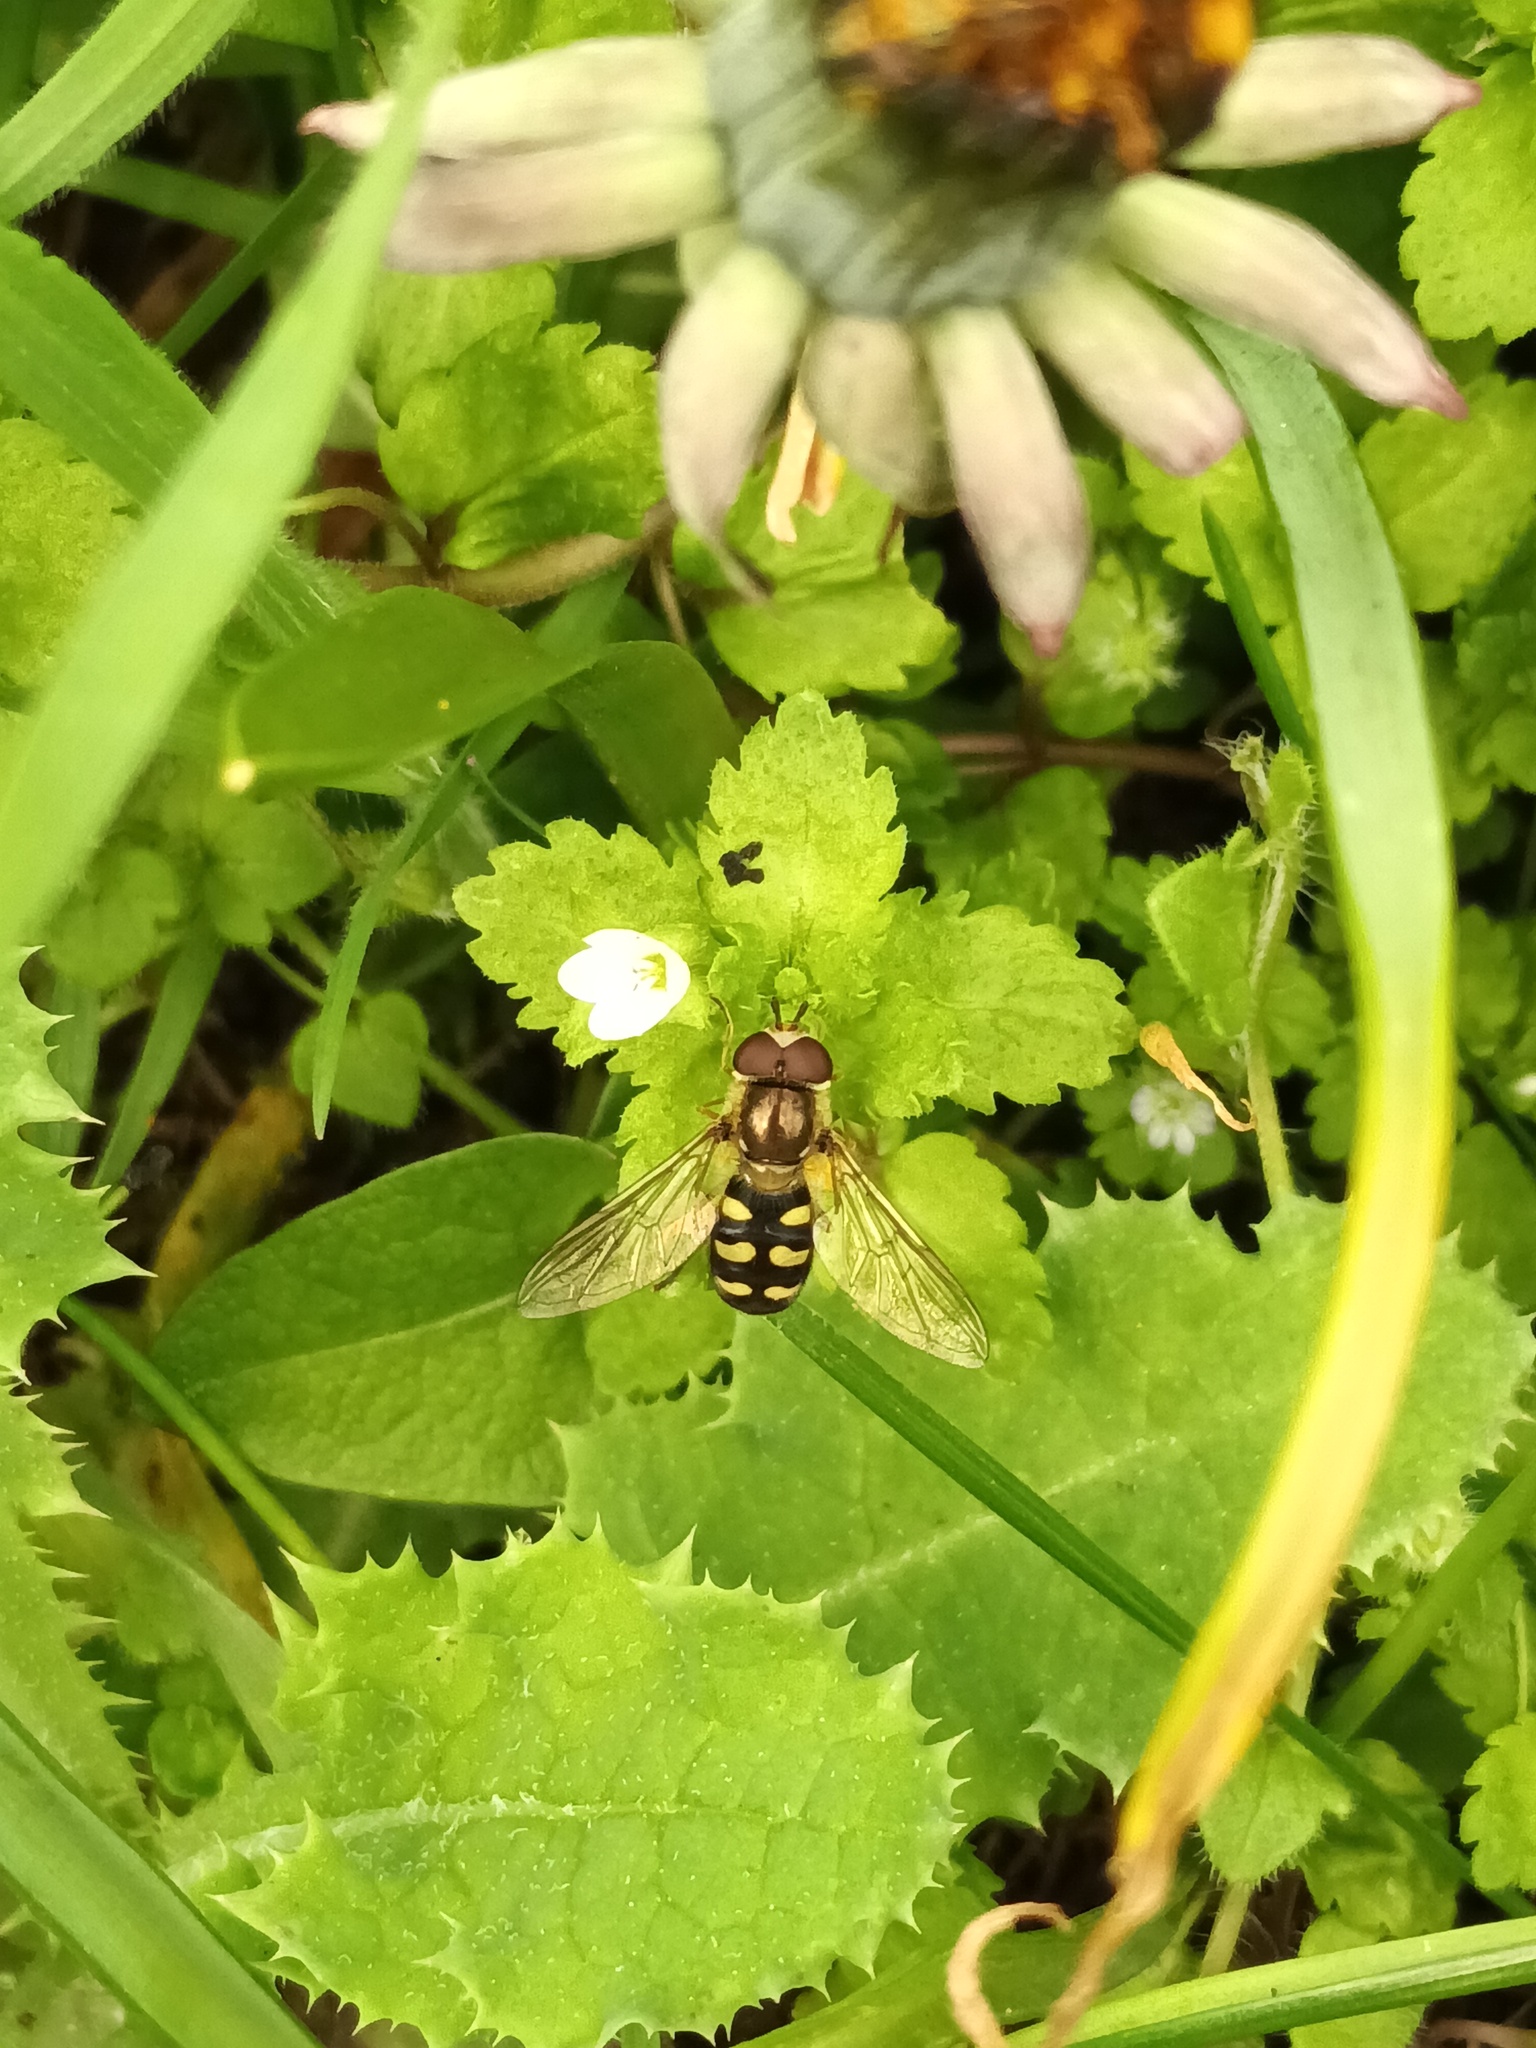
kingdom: Animalia
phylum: Arthropoda
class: Insecta
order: Diptera
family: Syrphidae
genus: Eupeodes
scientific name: Eupeodes
